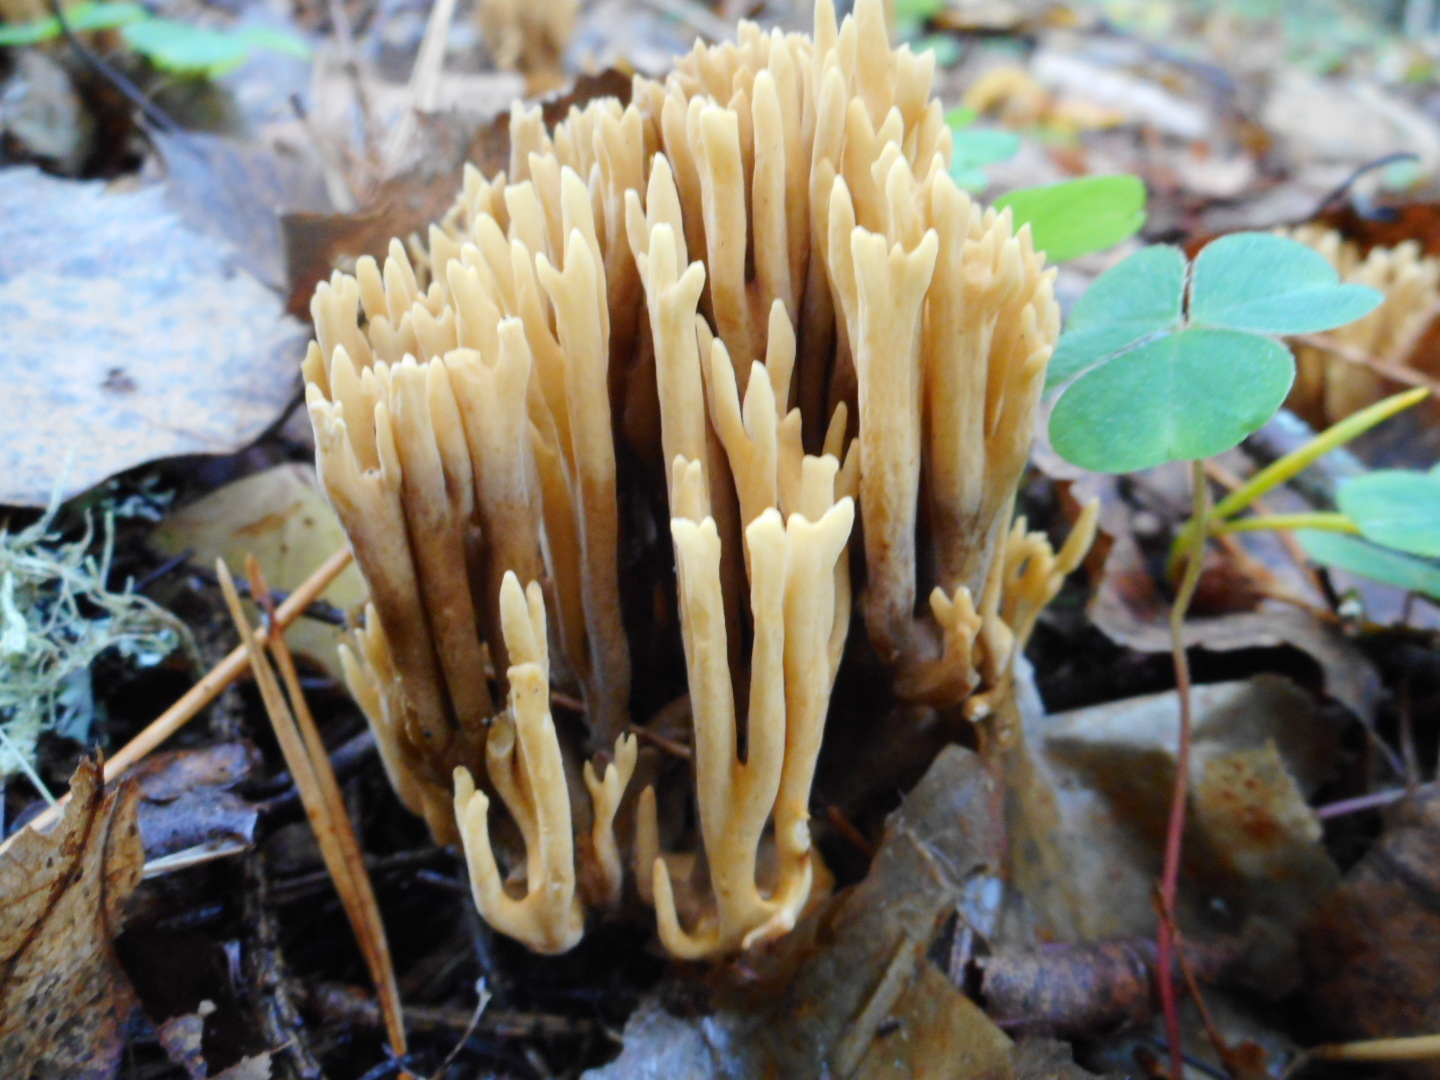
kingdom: Fungi
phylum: Basidiomycota
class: Agaricomycetes
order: Gomphales
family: Gomphaceae
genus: Phaeoclavulina
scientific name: Phaeoclavulina eumorpha
